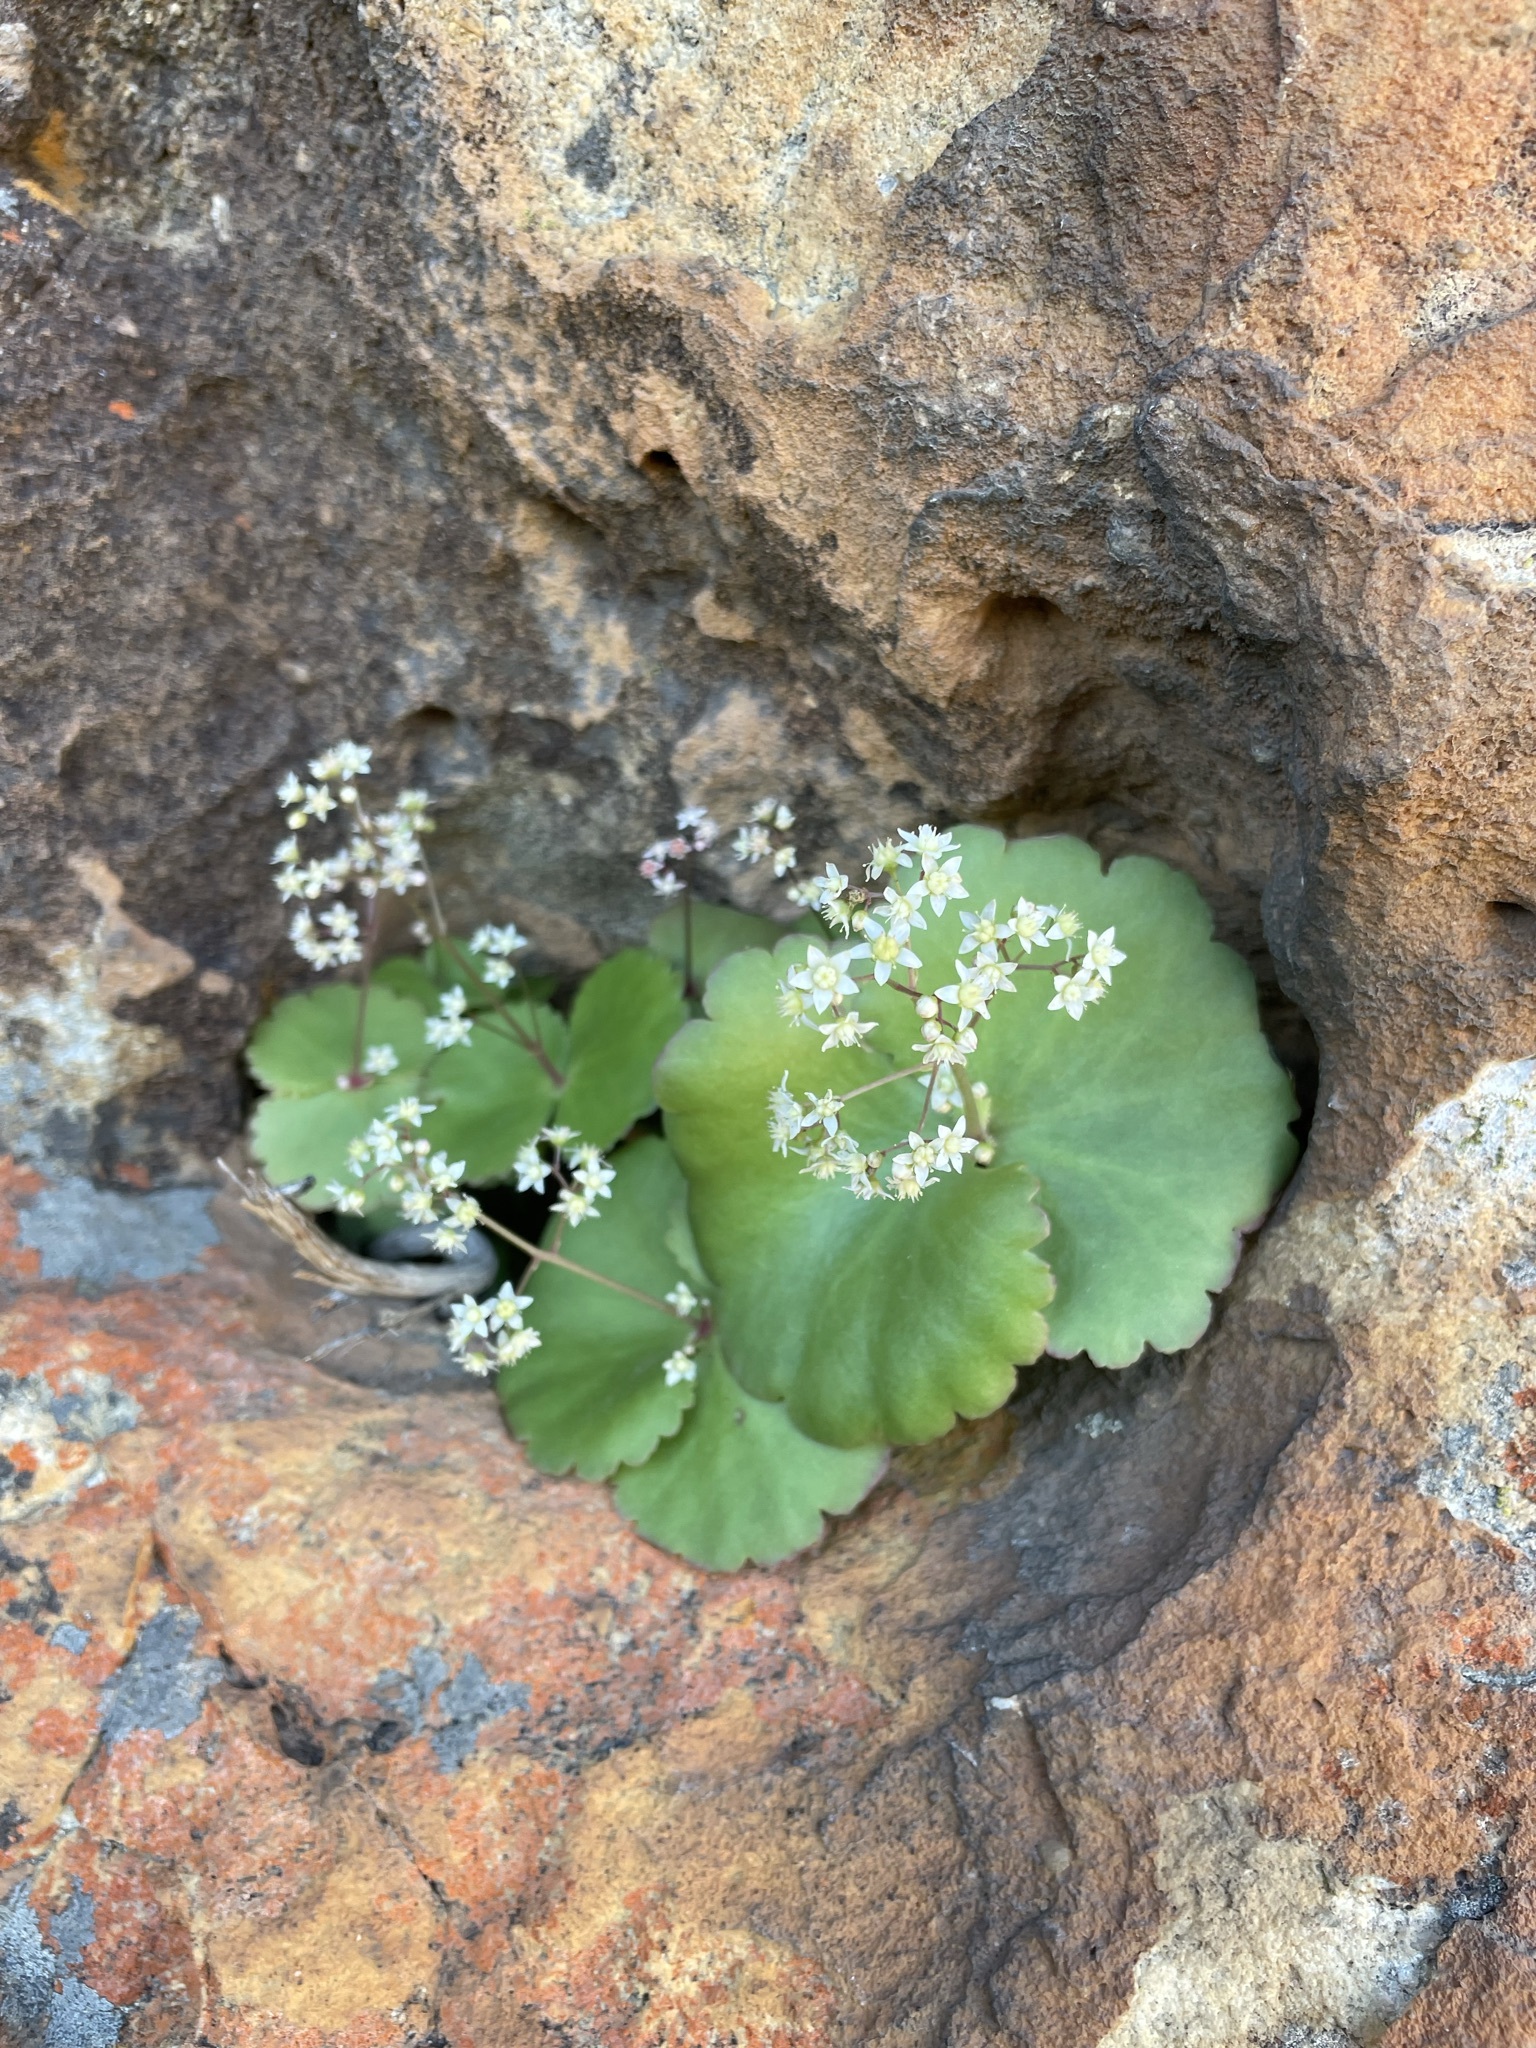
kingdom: Plantae
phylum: Tracheophyta
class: Magnoliopsida
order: Saxifragales
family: Crassulaceae
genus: Crassula
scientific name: Crassula umbella
